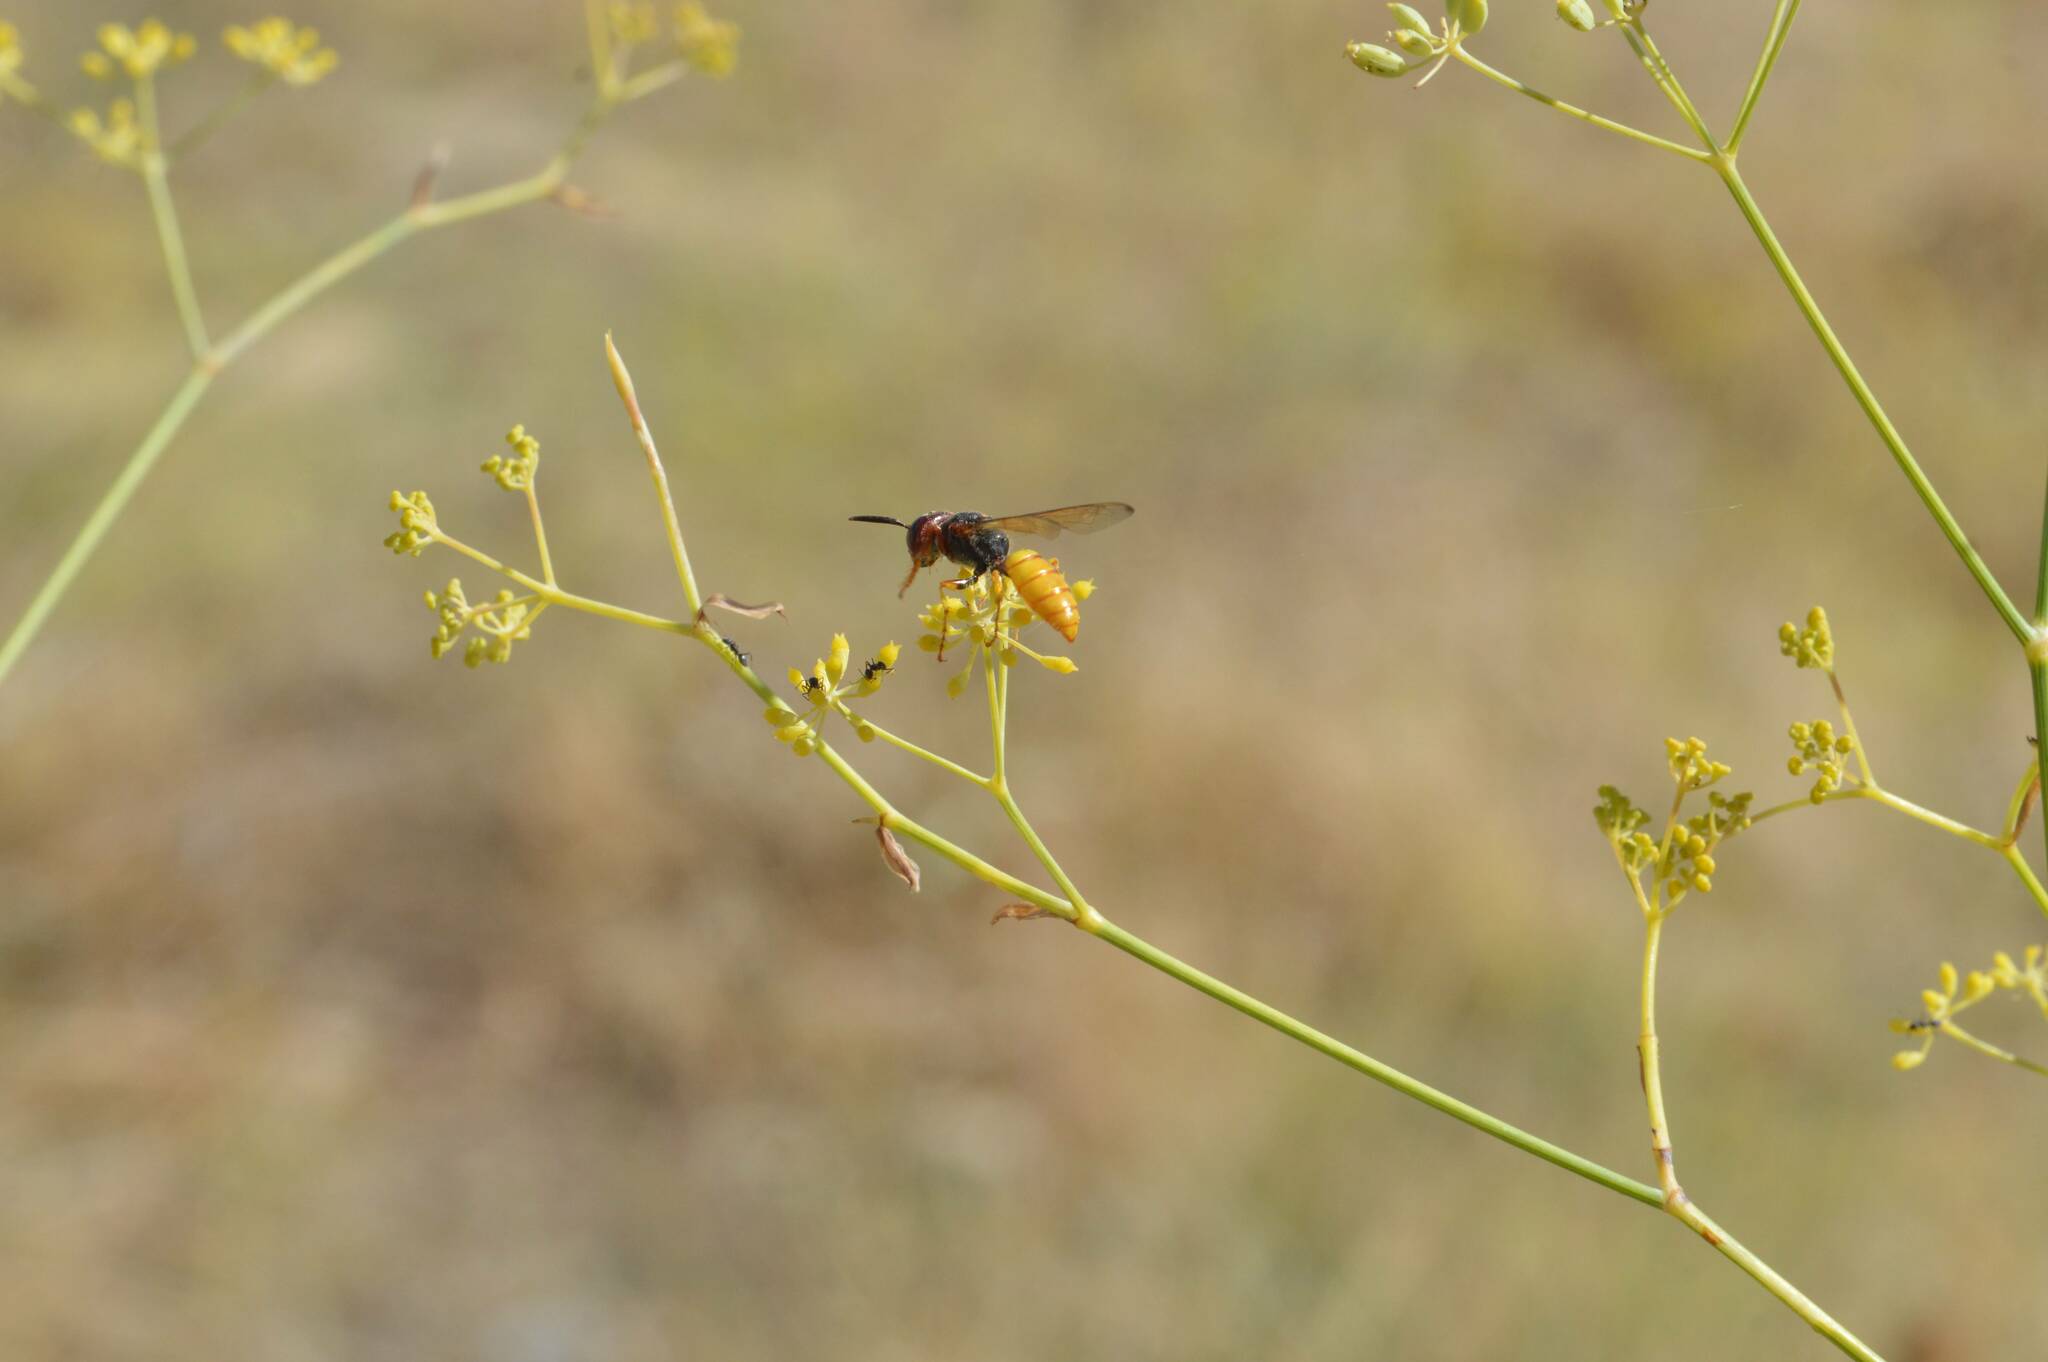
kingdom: Animalia
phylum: Arthropoda
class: Insecta
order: Hymenoptera
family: Crabronidae
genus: Philanthus
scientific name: Philanthus triangulum
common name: Bee wolf
